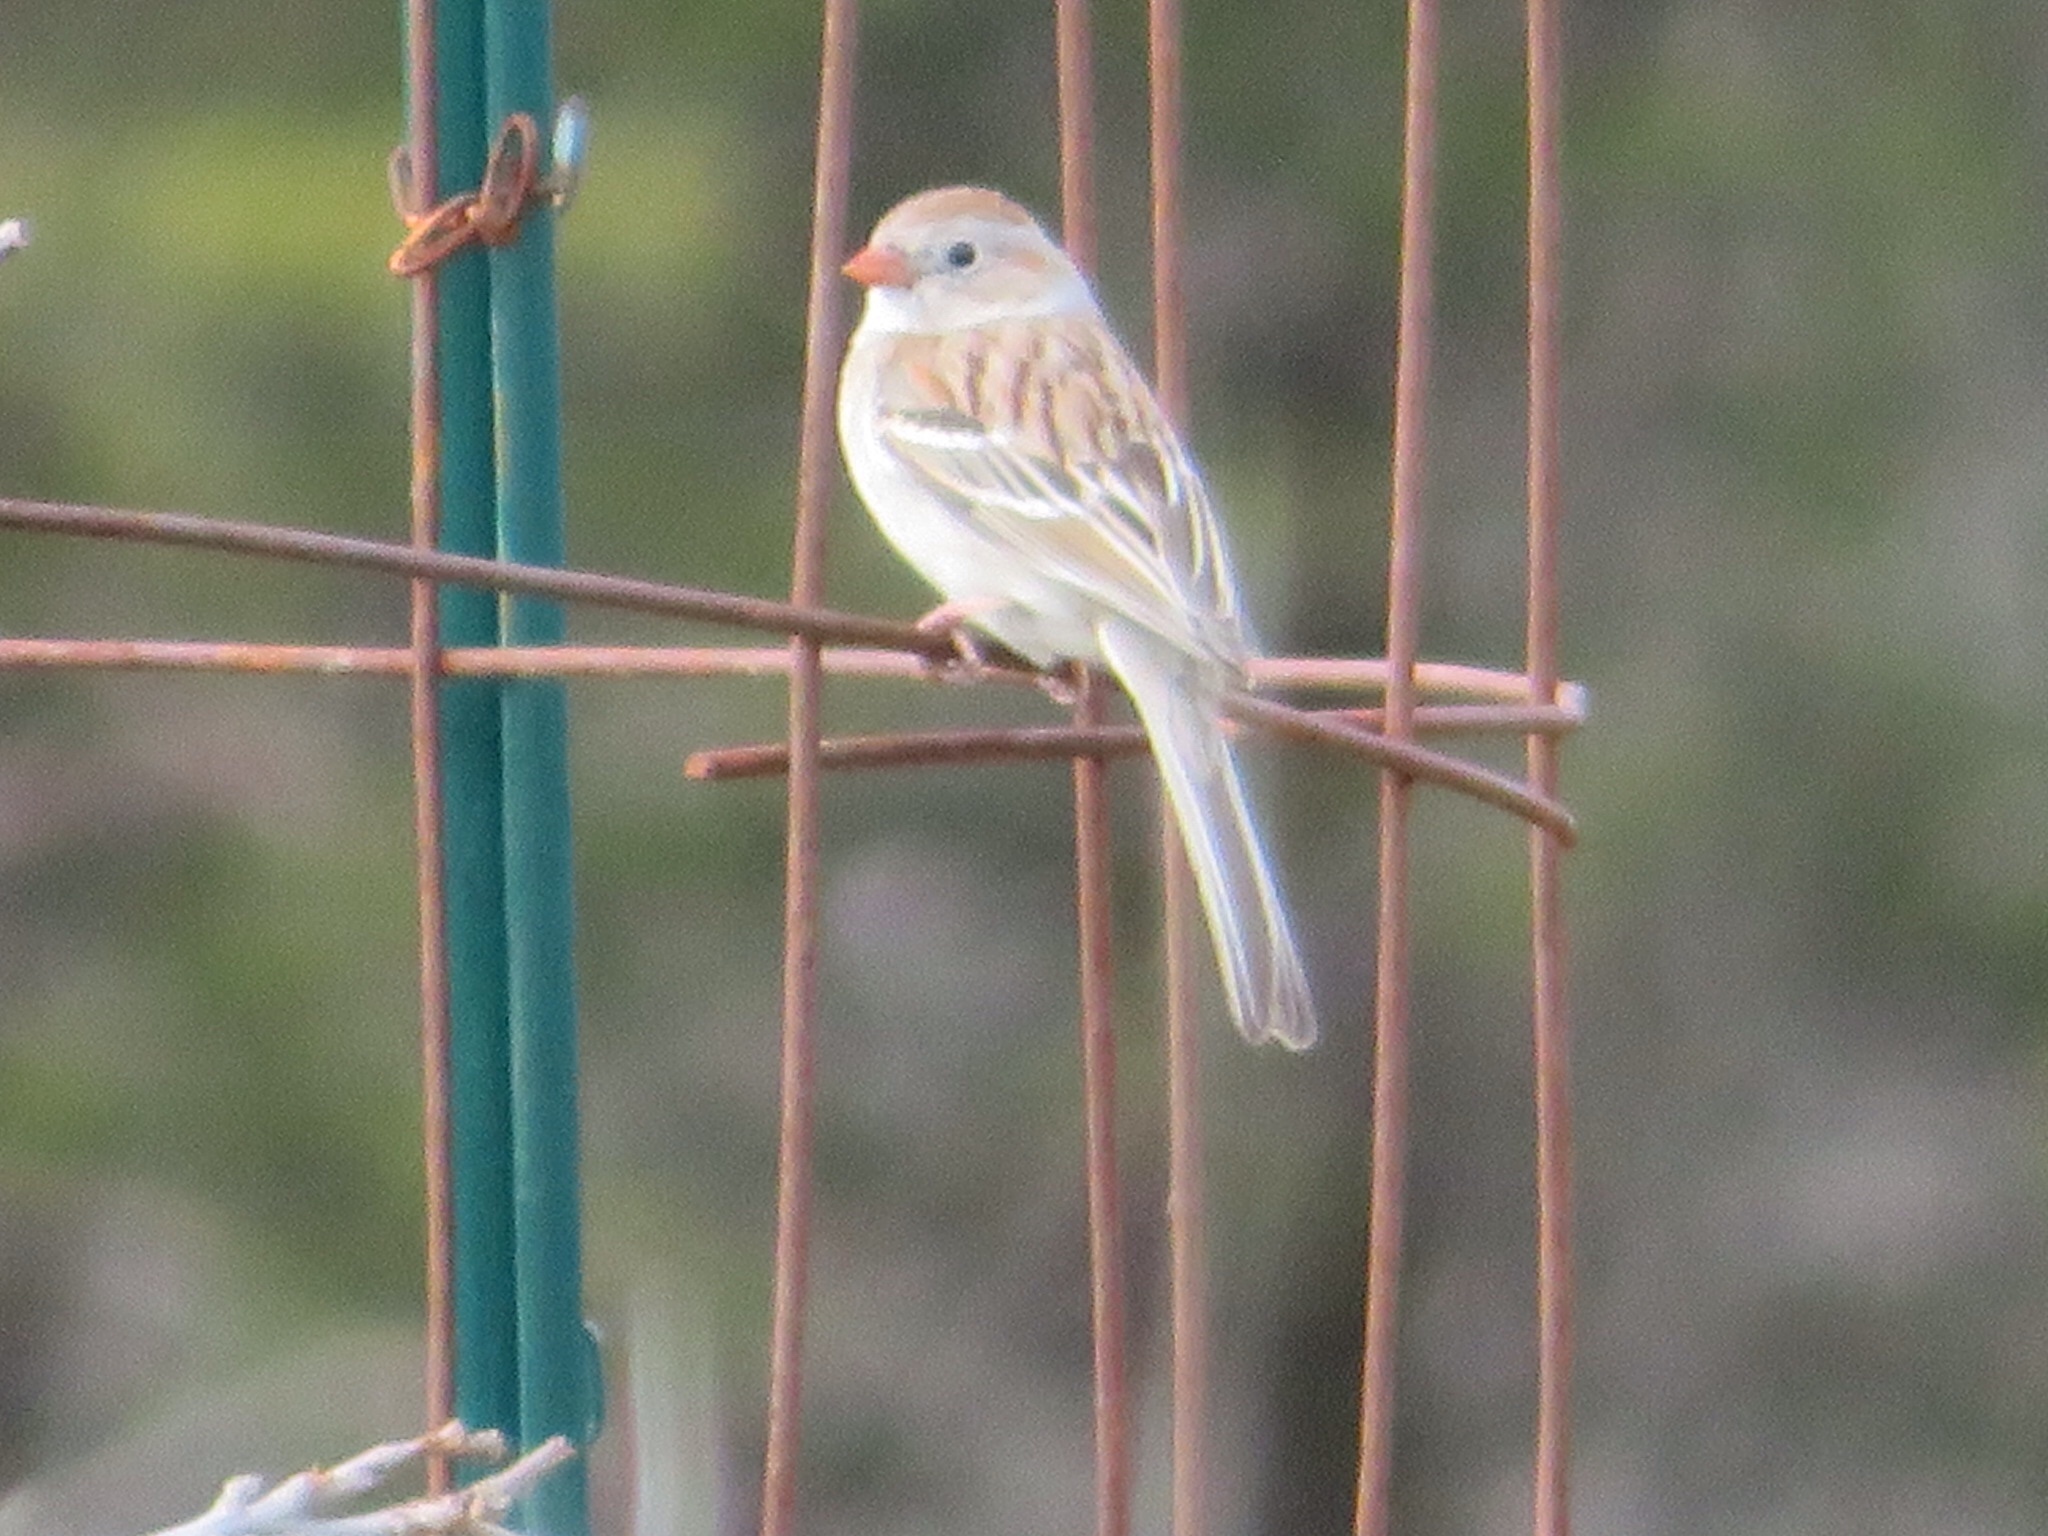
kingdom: Animalia
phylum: Chordata
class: Aves
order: Passeriformes
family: Passerellidae
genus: Spizella
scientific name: Spizella pusilla
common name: Field sparrow
